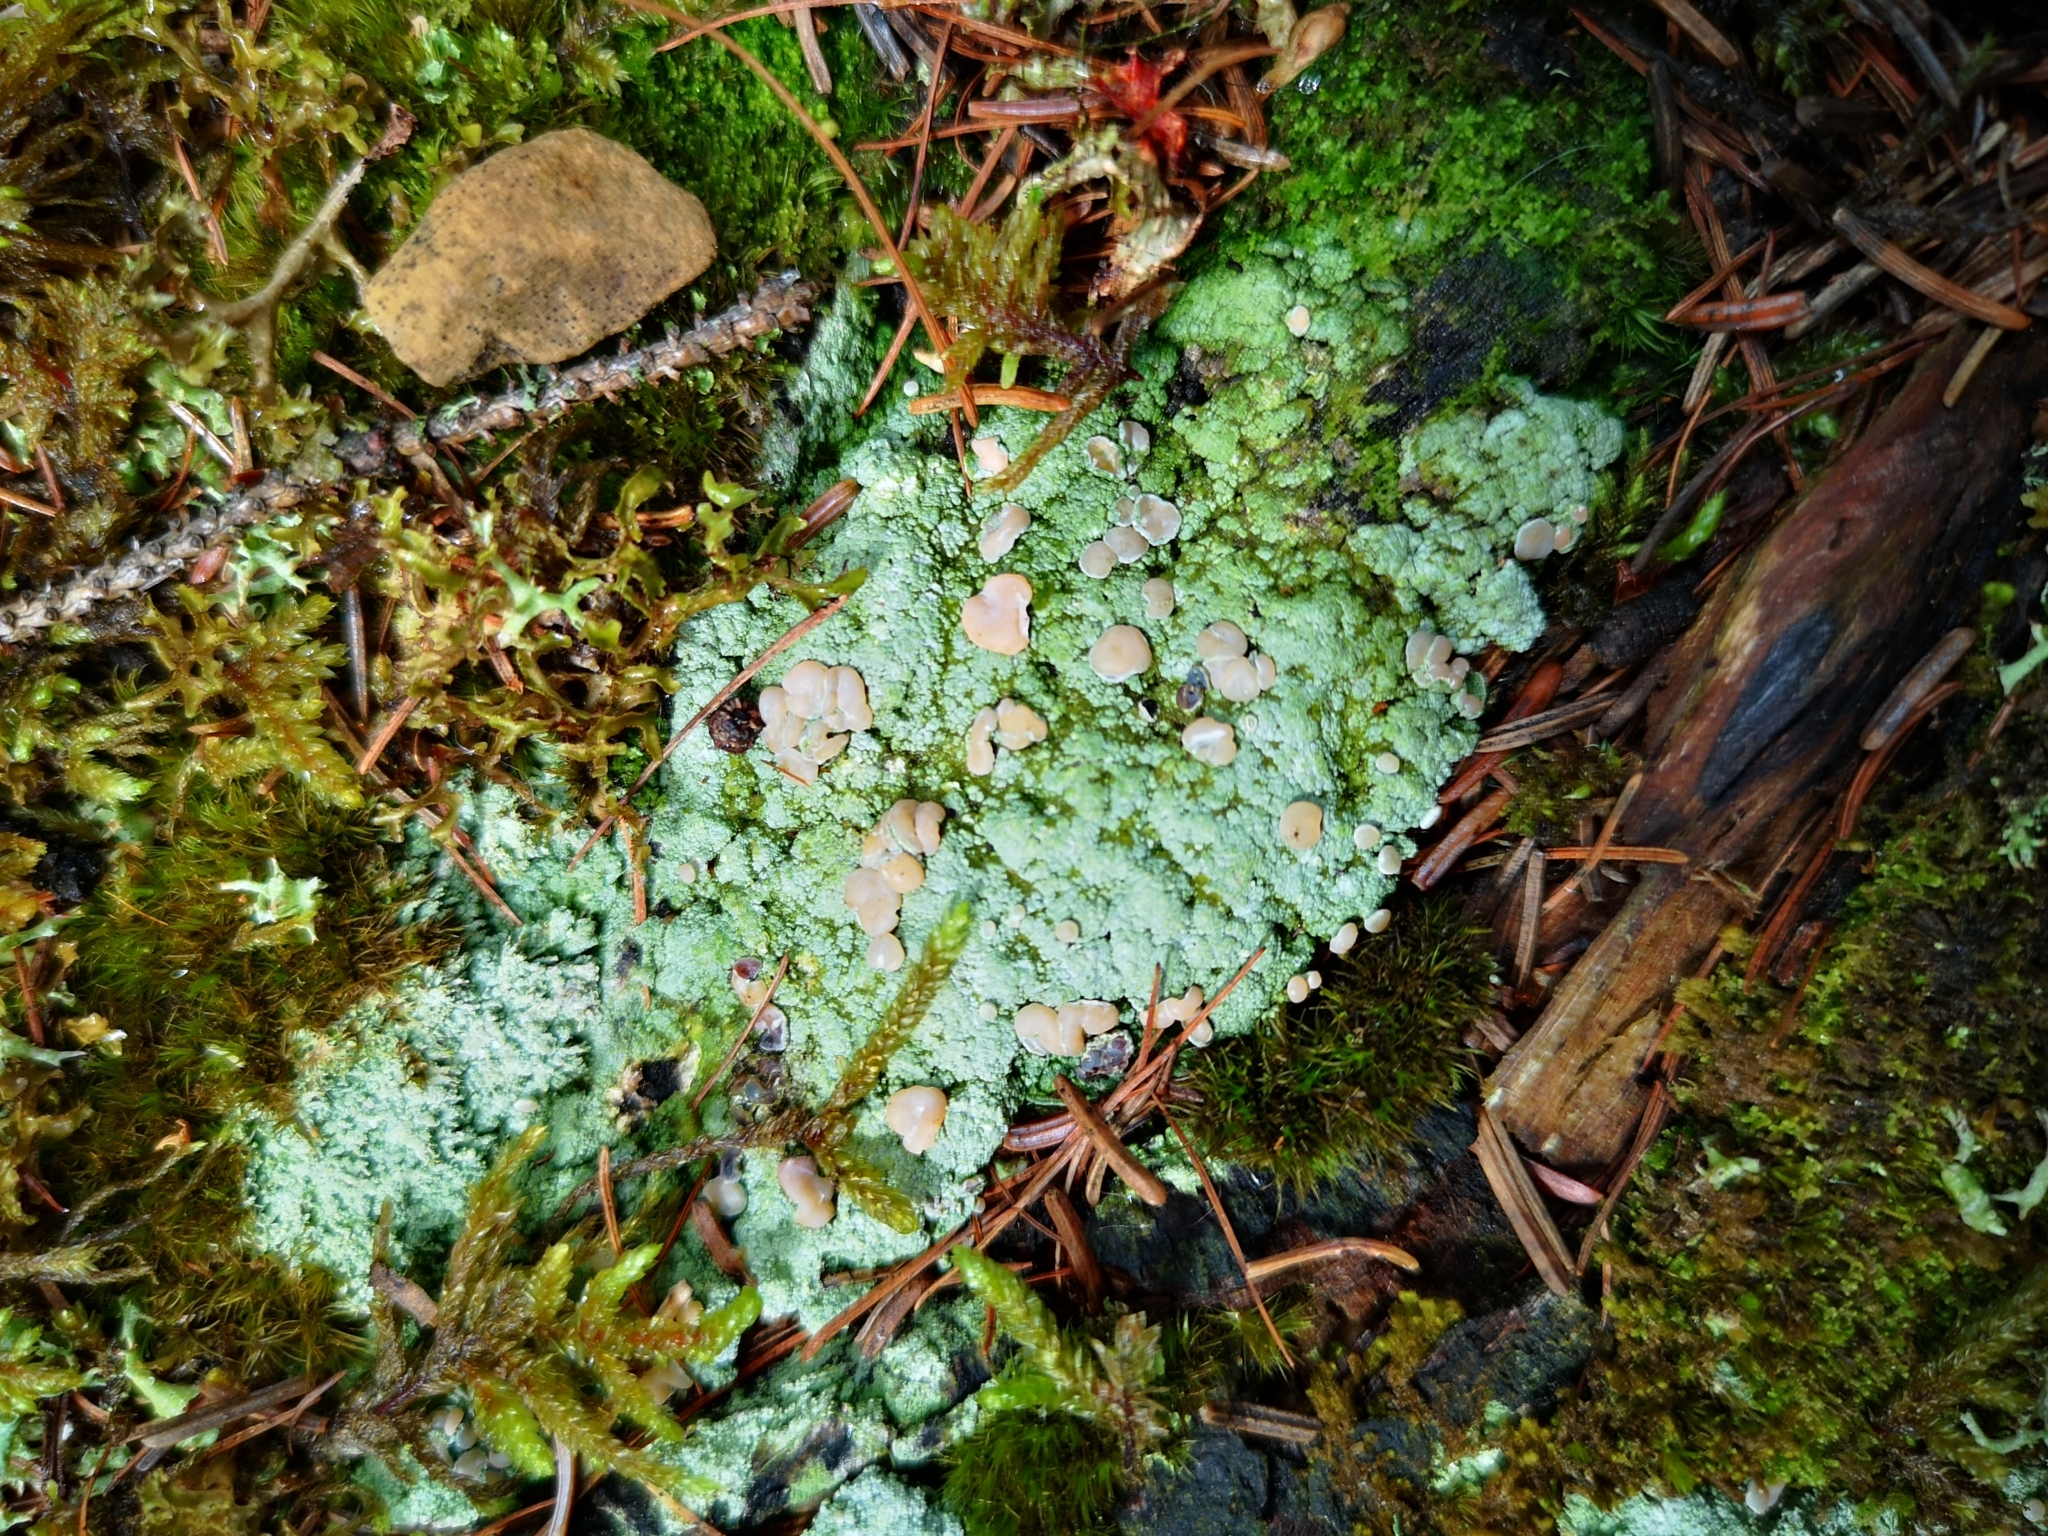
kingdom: Fungi
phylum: Ascomycota
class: Lecanoromycetes
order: Pertusariales
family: Icmadophilaceae
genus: Icmadophila
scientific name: Icmadophila ericetorum
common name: Candy lichen
